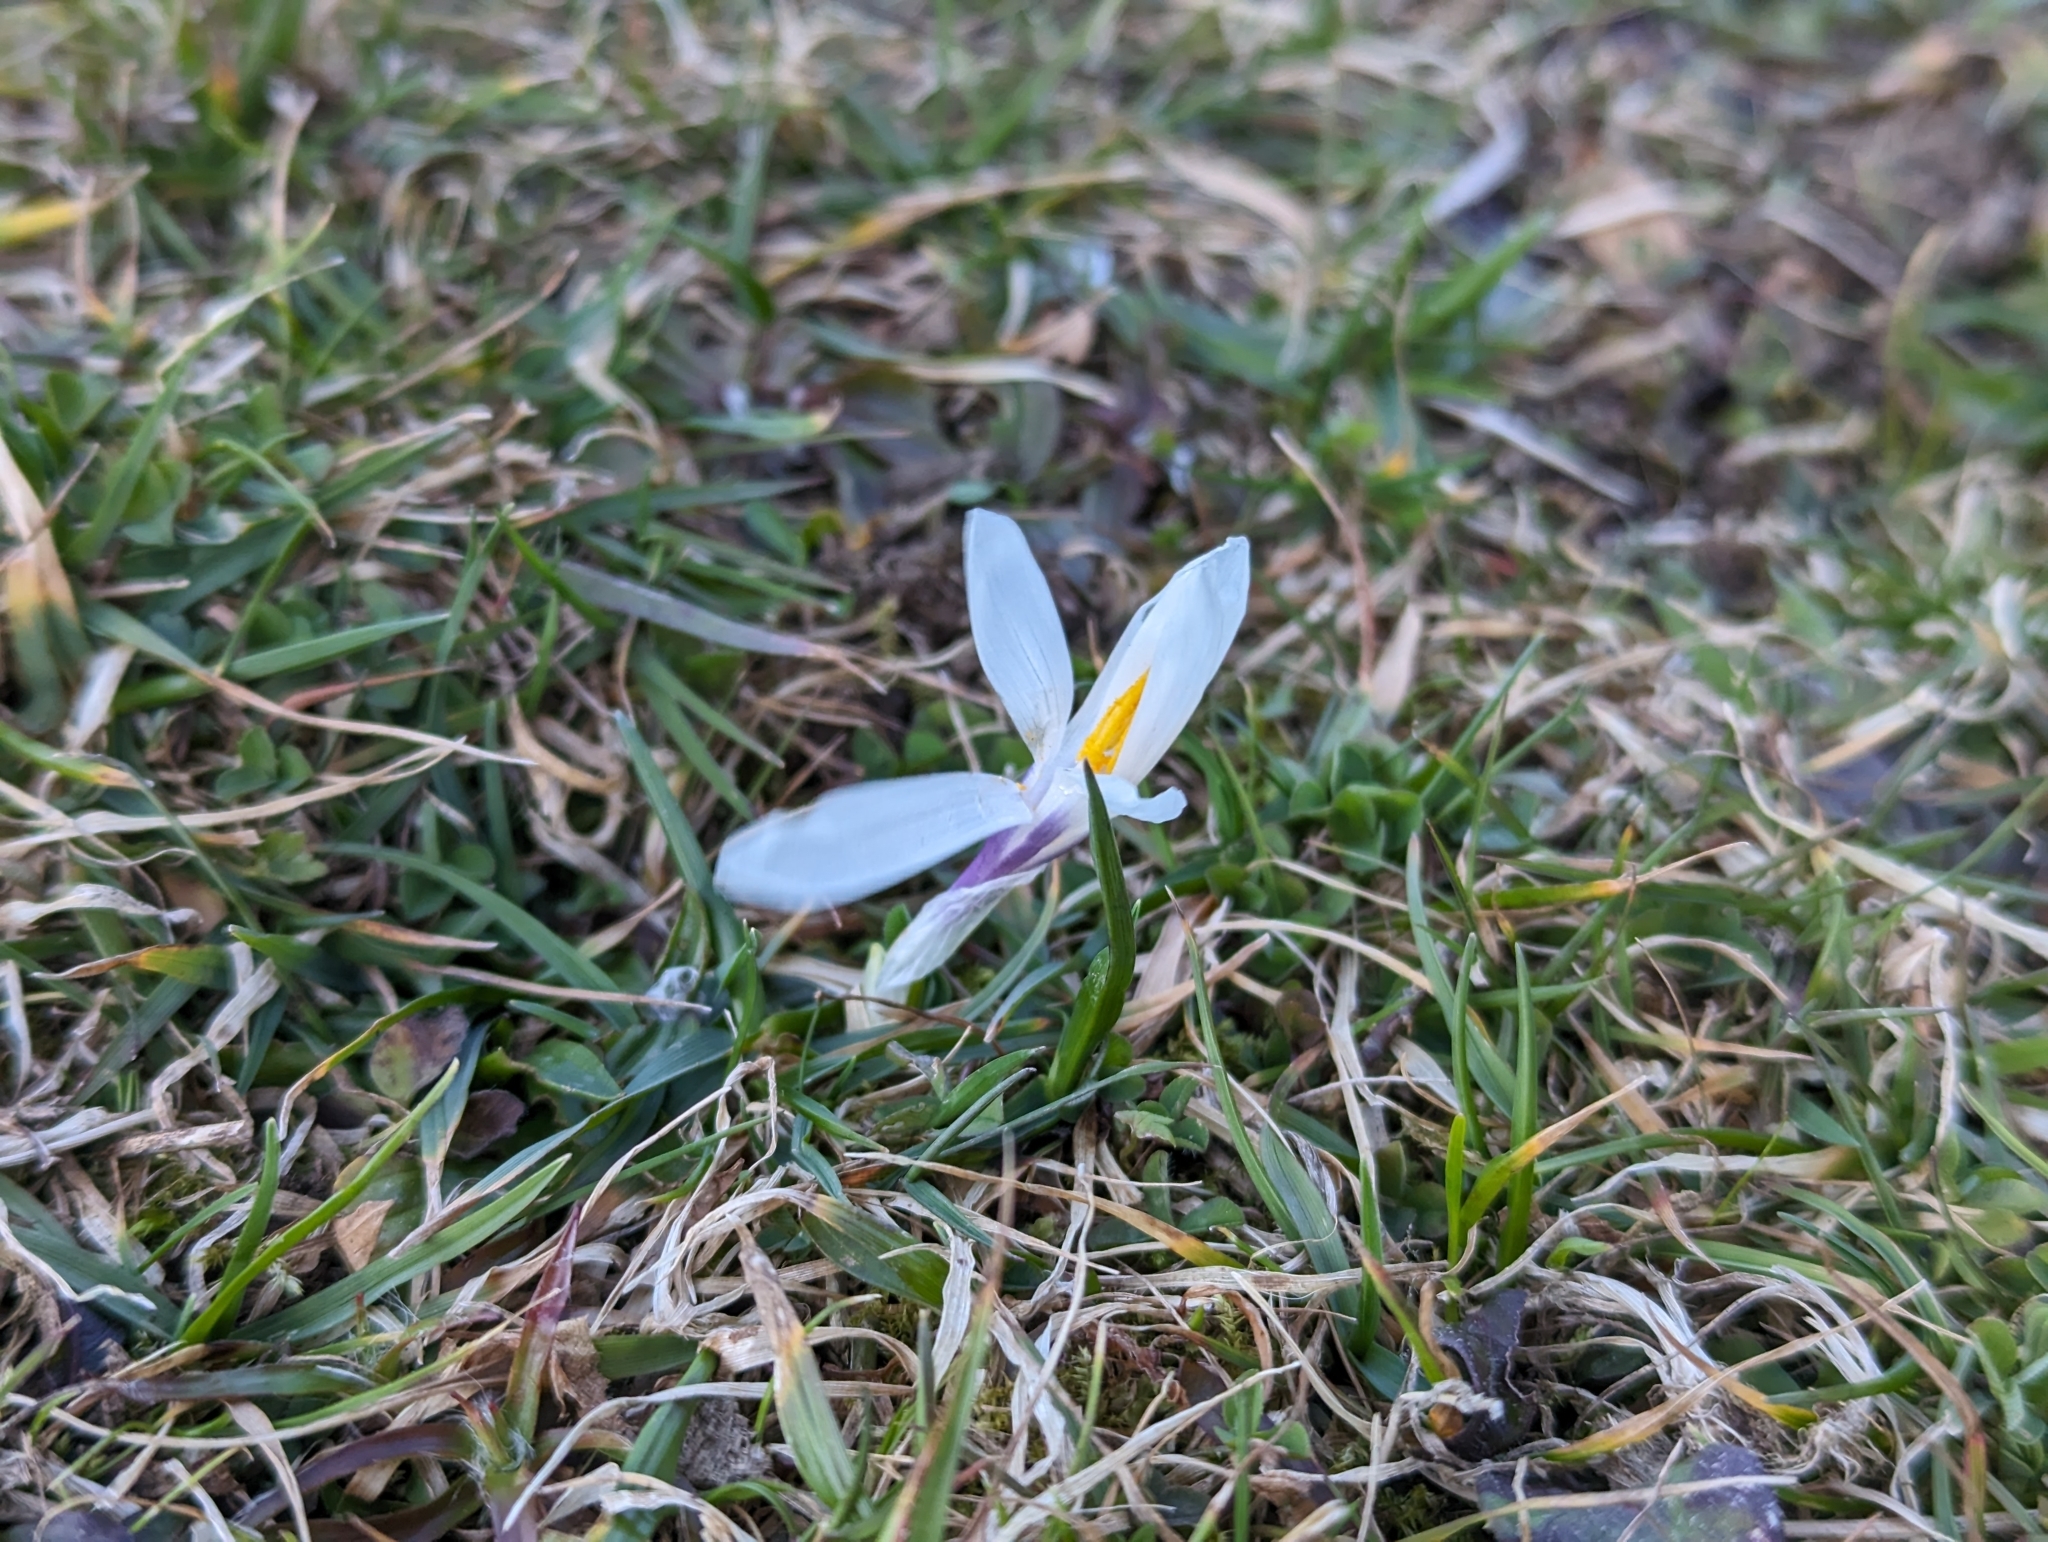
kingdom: Plantae
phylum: Tracheophyta
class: Liliopsida
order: Asparagales
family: Iridaceae
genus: Crocus
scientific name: Crocus vernus
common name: Spring crocus
